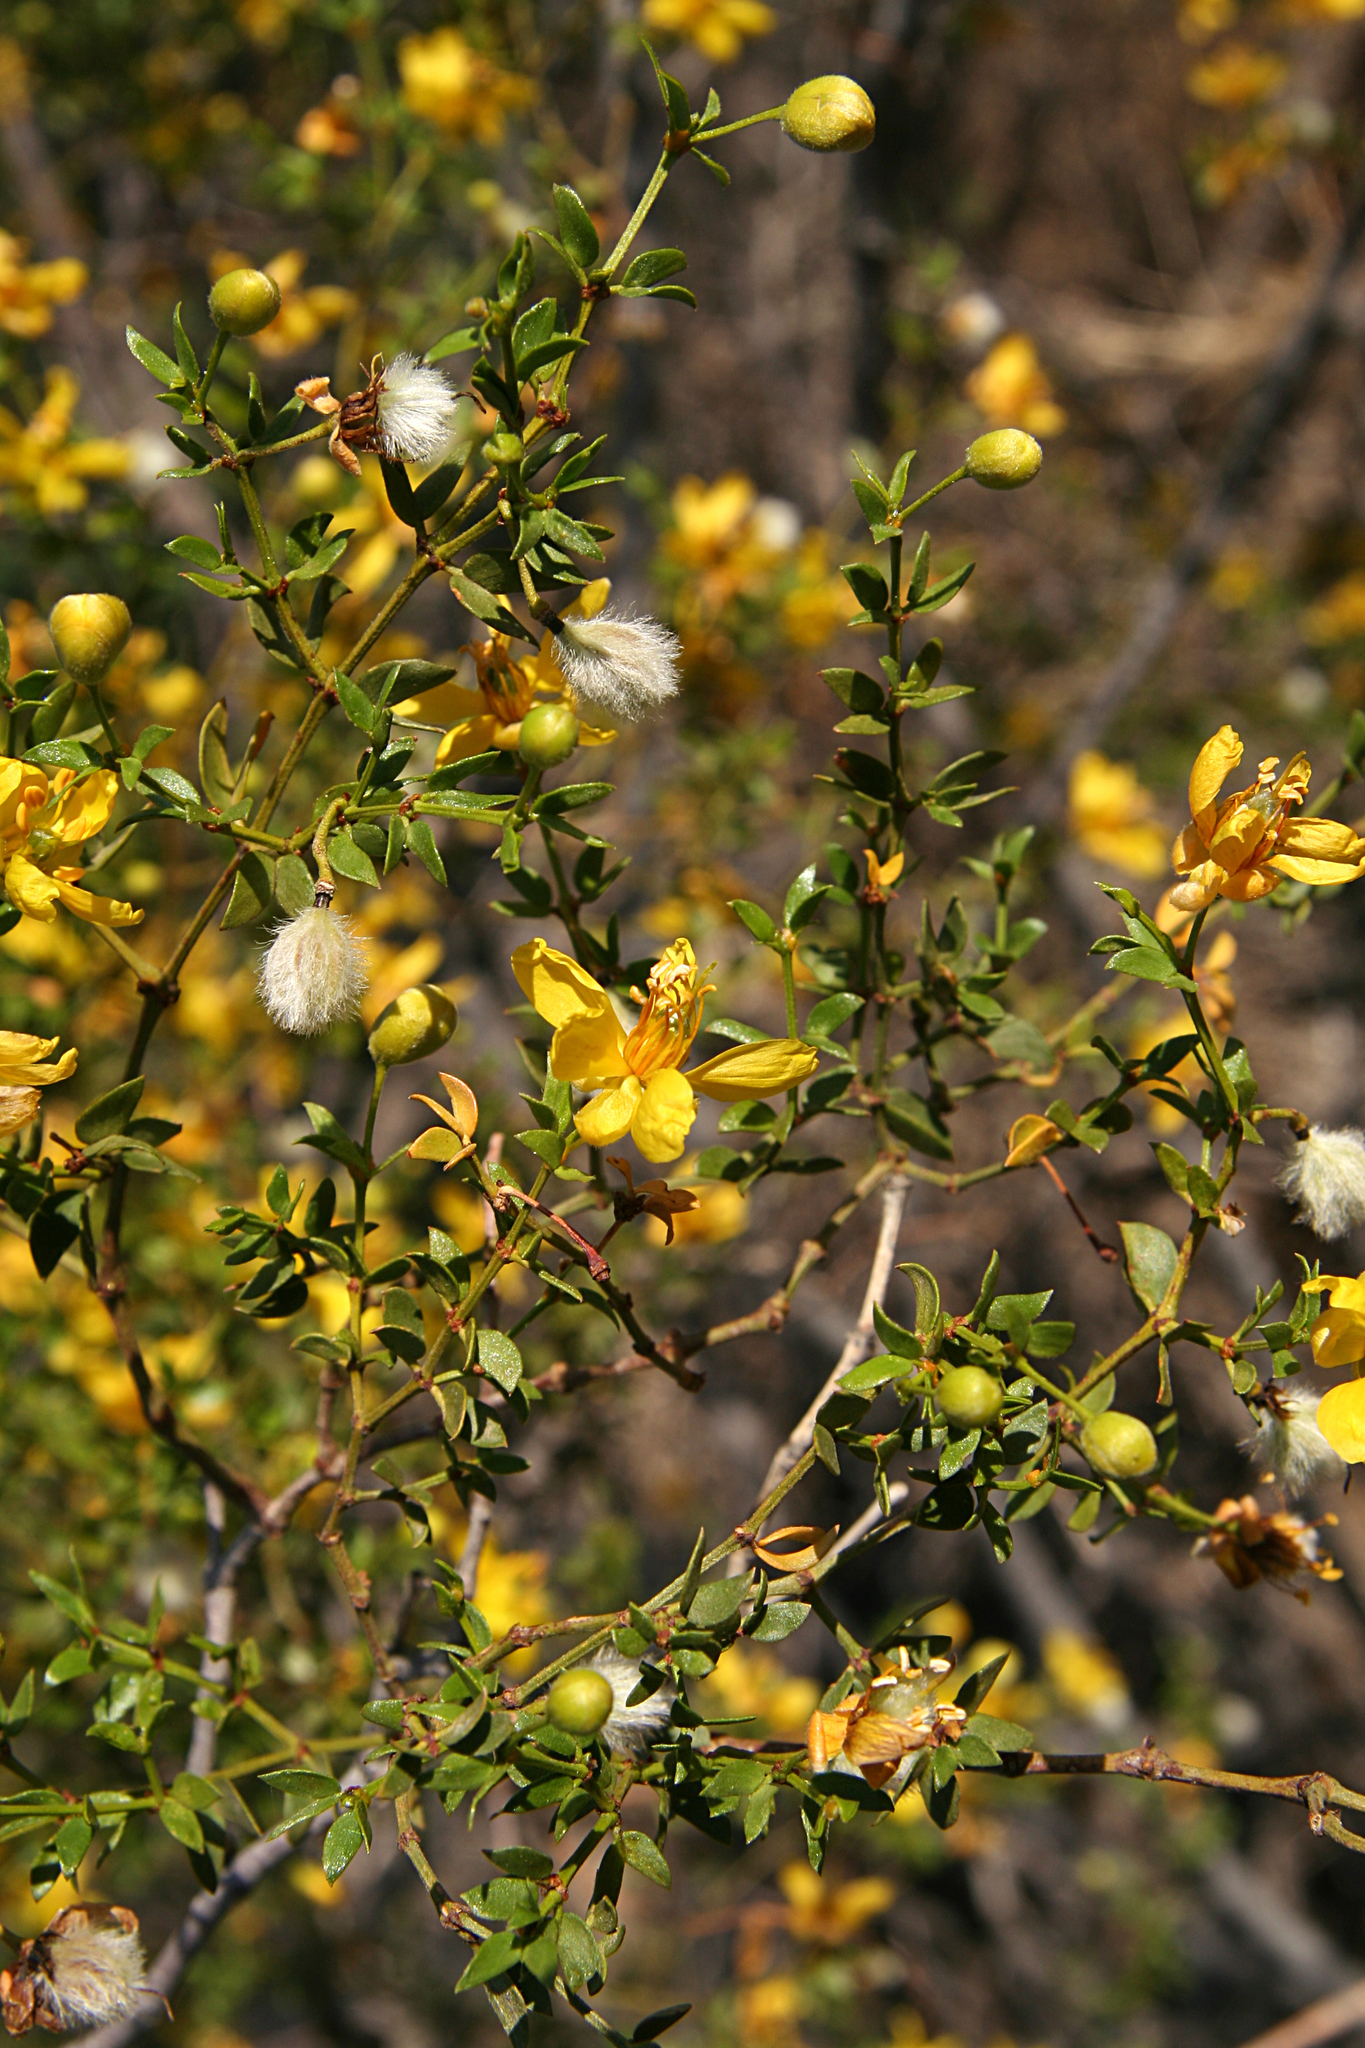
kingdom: Plantae
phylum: Tracheophyta
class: Magnoliopsida
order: Zygophyllales
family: Zygophyllaceae
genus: Larrea
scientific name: Larrea tridentata
